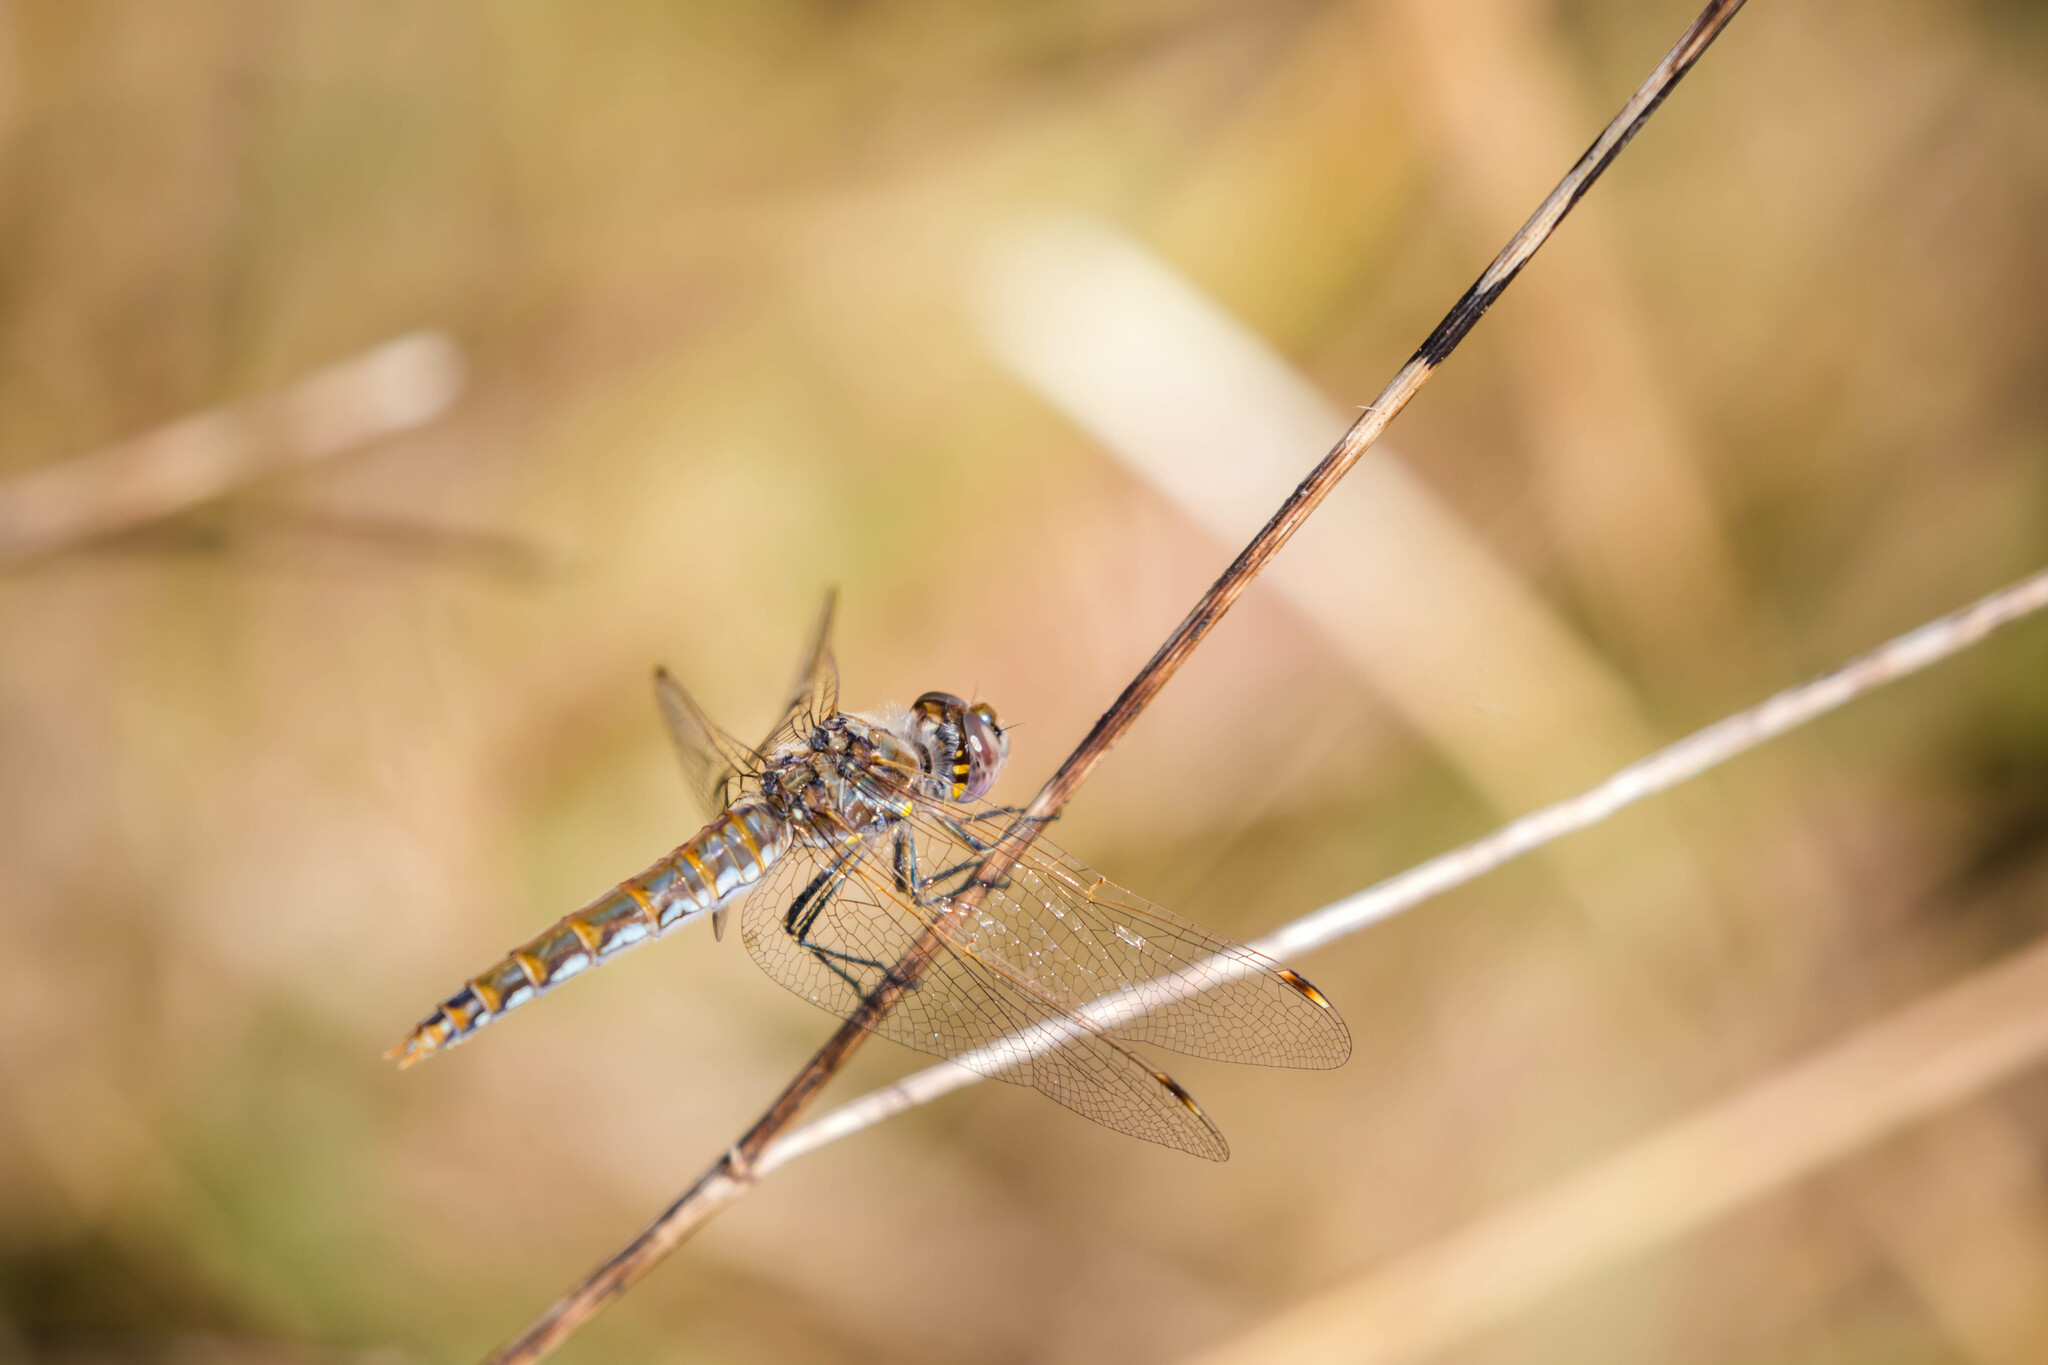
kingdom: Animalia
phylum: Arthropoda
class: Insecta
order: Odonata
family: Libellulidae
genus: Sympetrum
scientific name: Sympetrum corruptum
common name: Variegated meadowhawk
